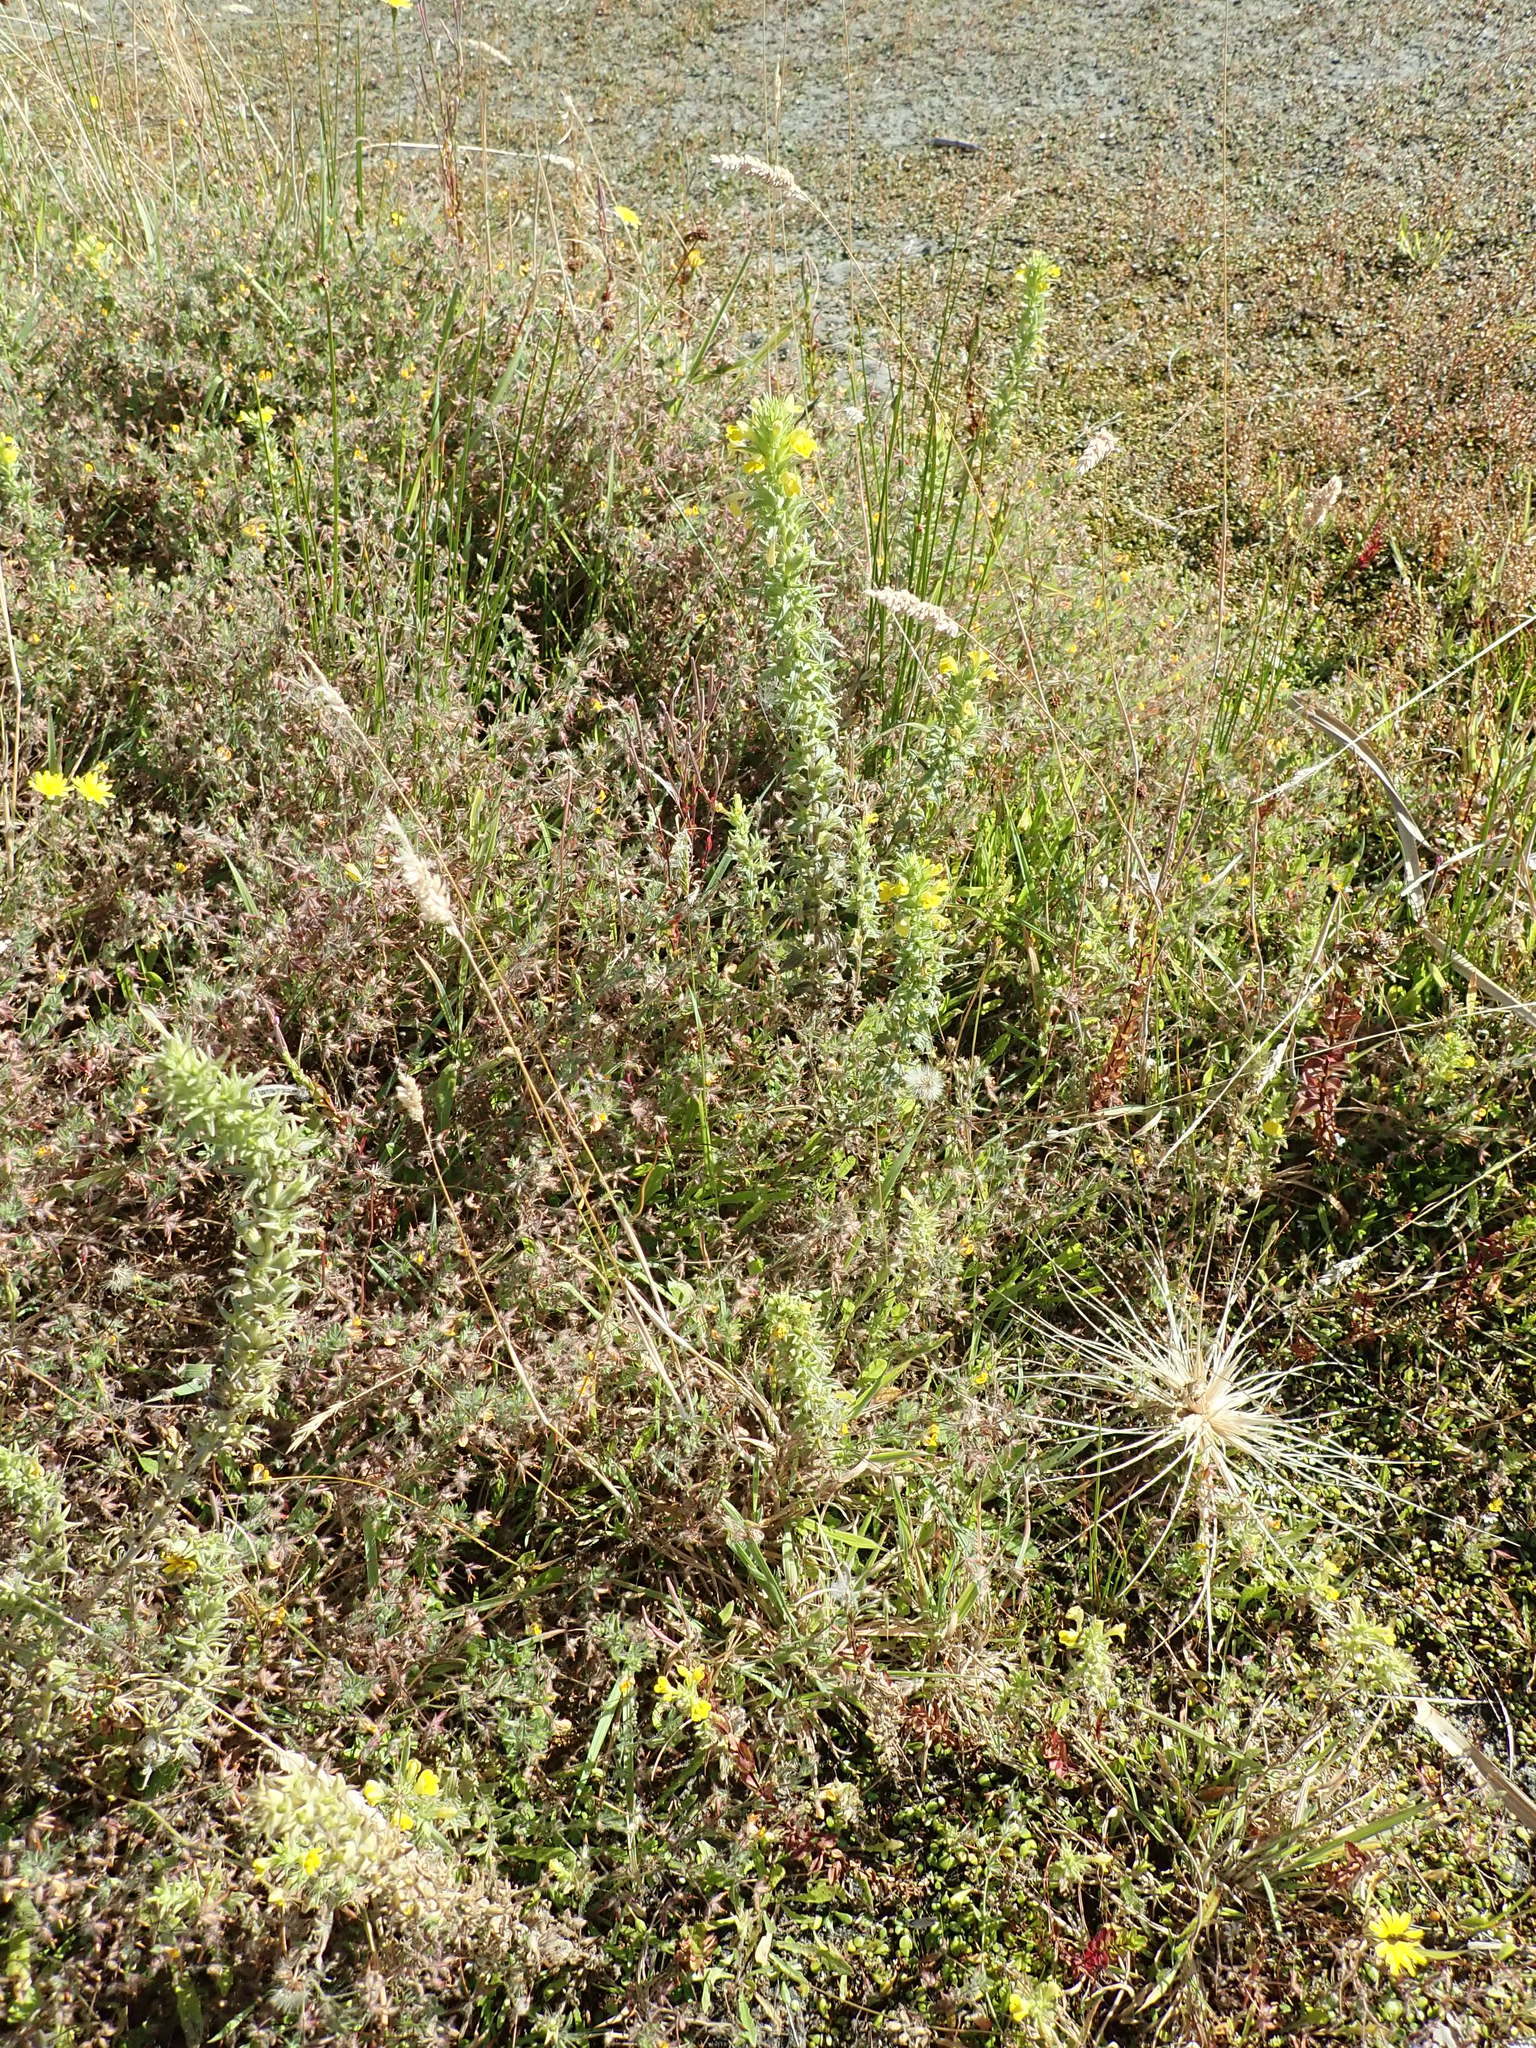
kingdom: Plantae
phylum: Tracheophyta
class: Magnoliopsida
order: Lamiales
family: Orobanchaceae
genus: Bellardia
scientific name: Bellardia viscosa
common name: Sticky parentucellia
